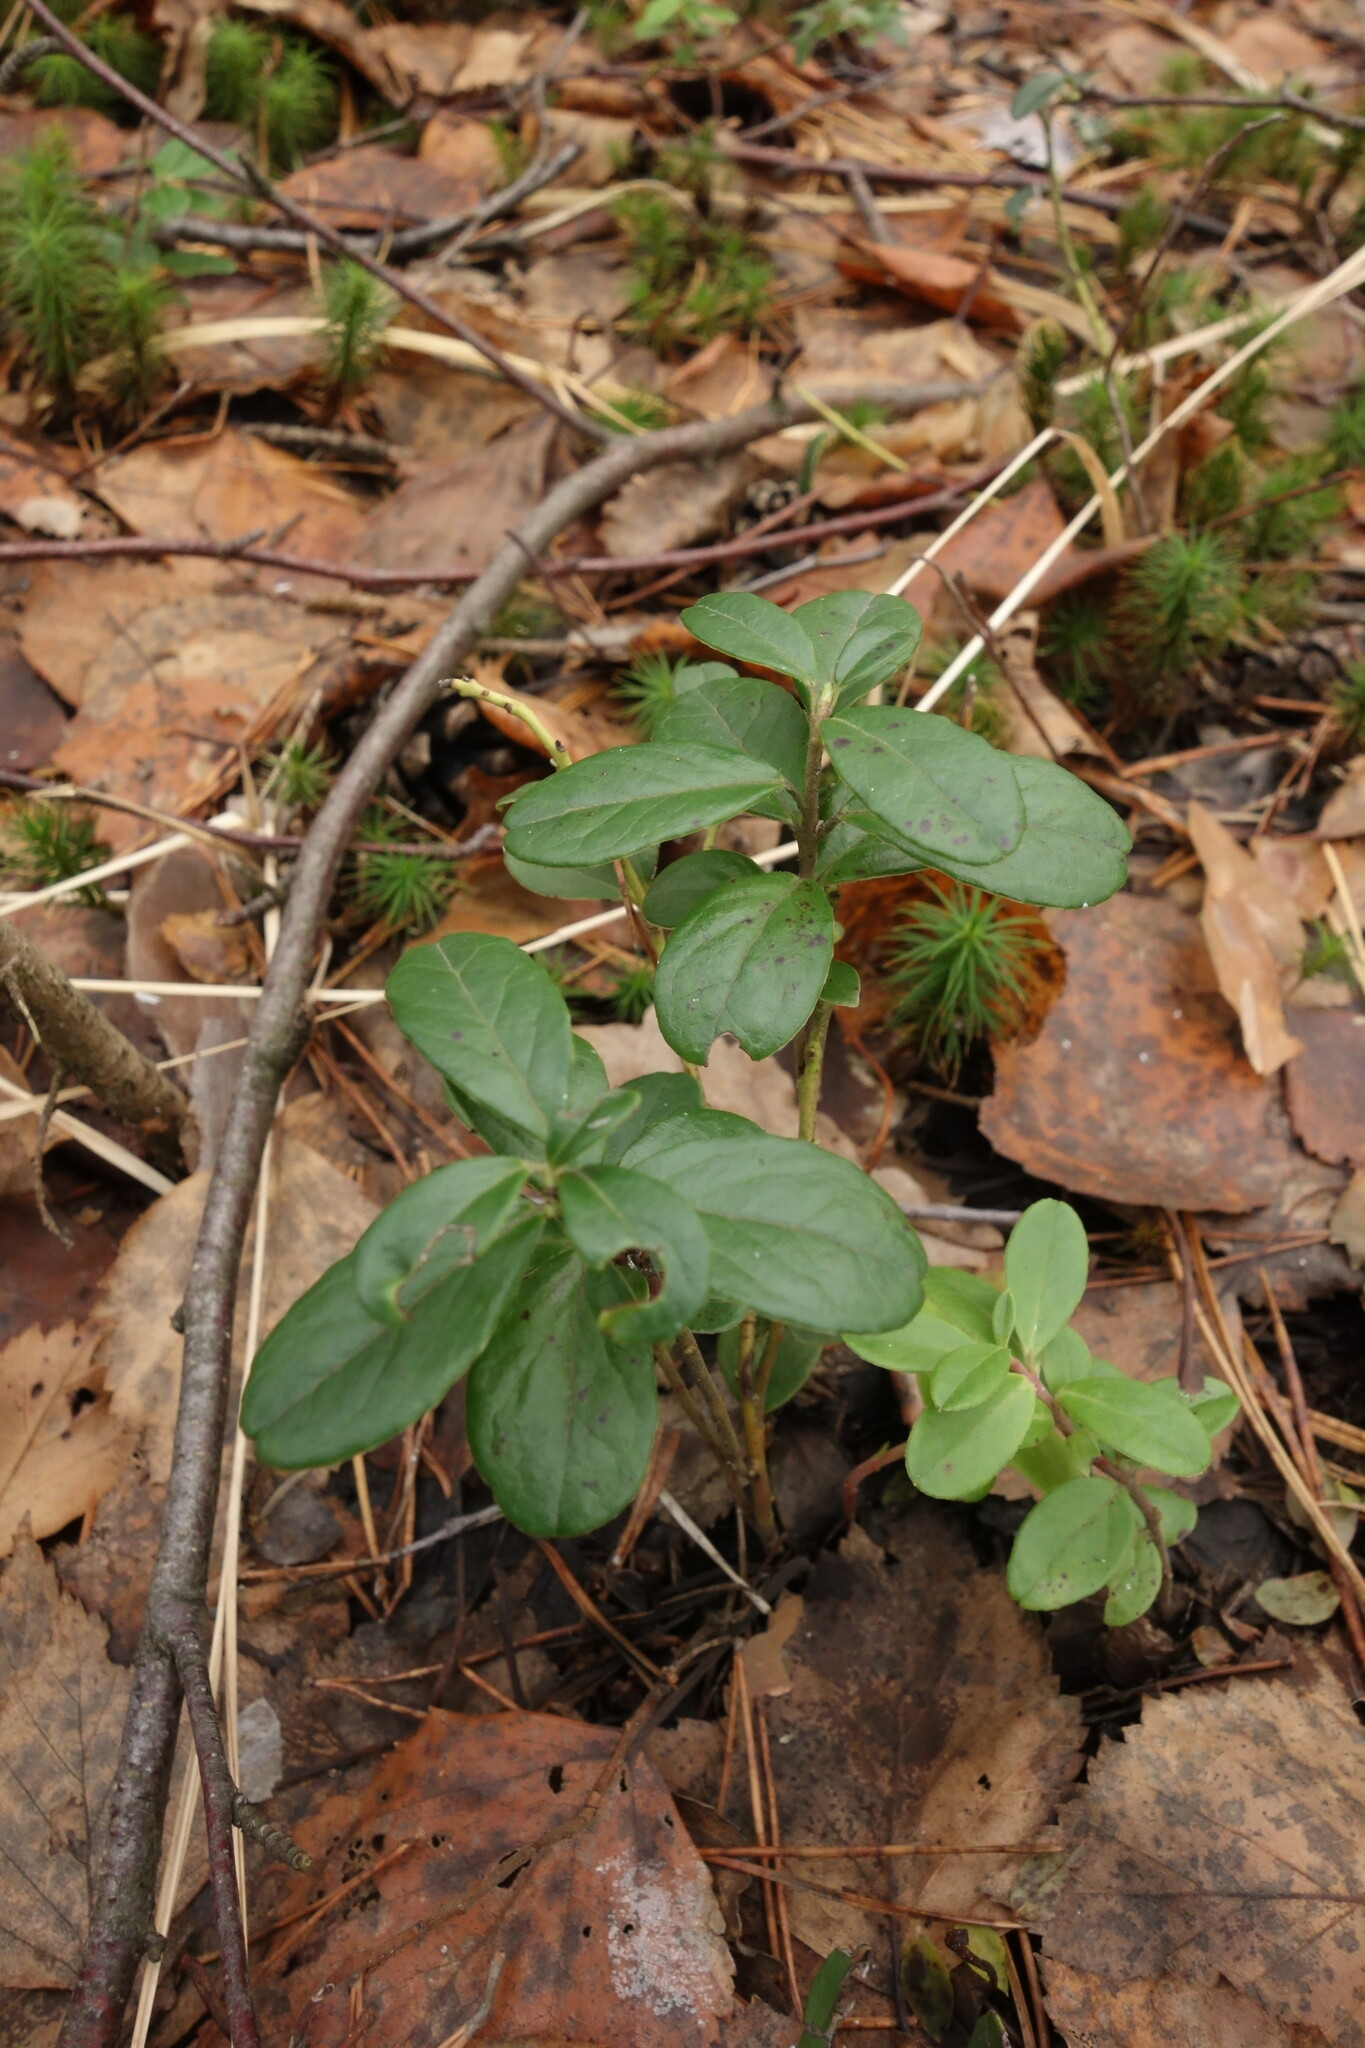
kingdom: Plantae
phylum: Tracheophyta
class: Magnoliopsida
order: Ericales
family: Ericaceae
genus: Vaccinium
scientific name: Vaccinium vitis-idaea
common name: Cowberry
